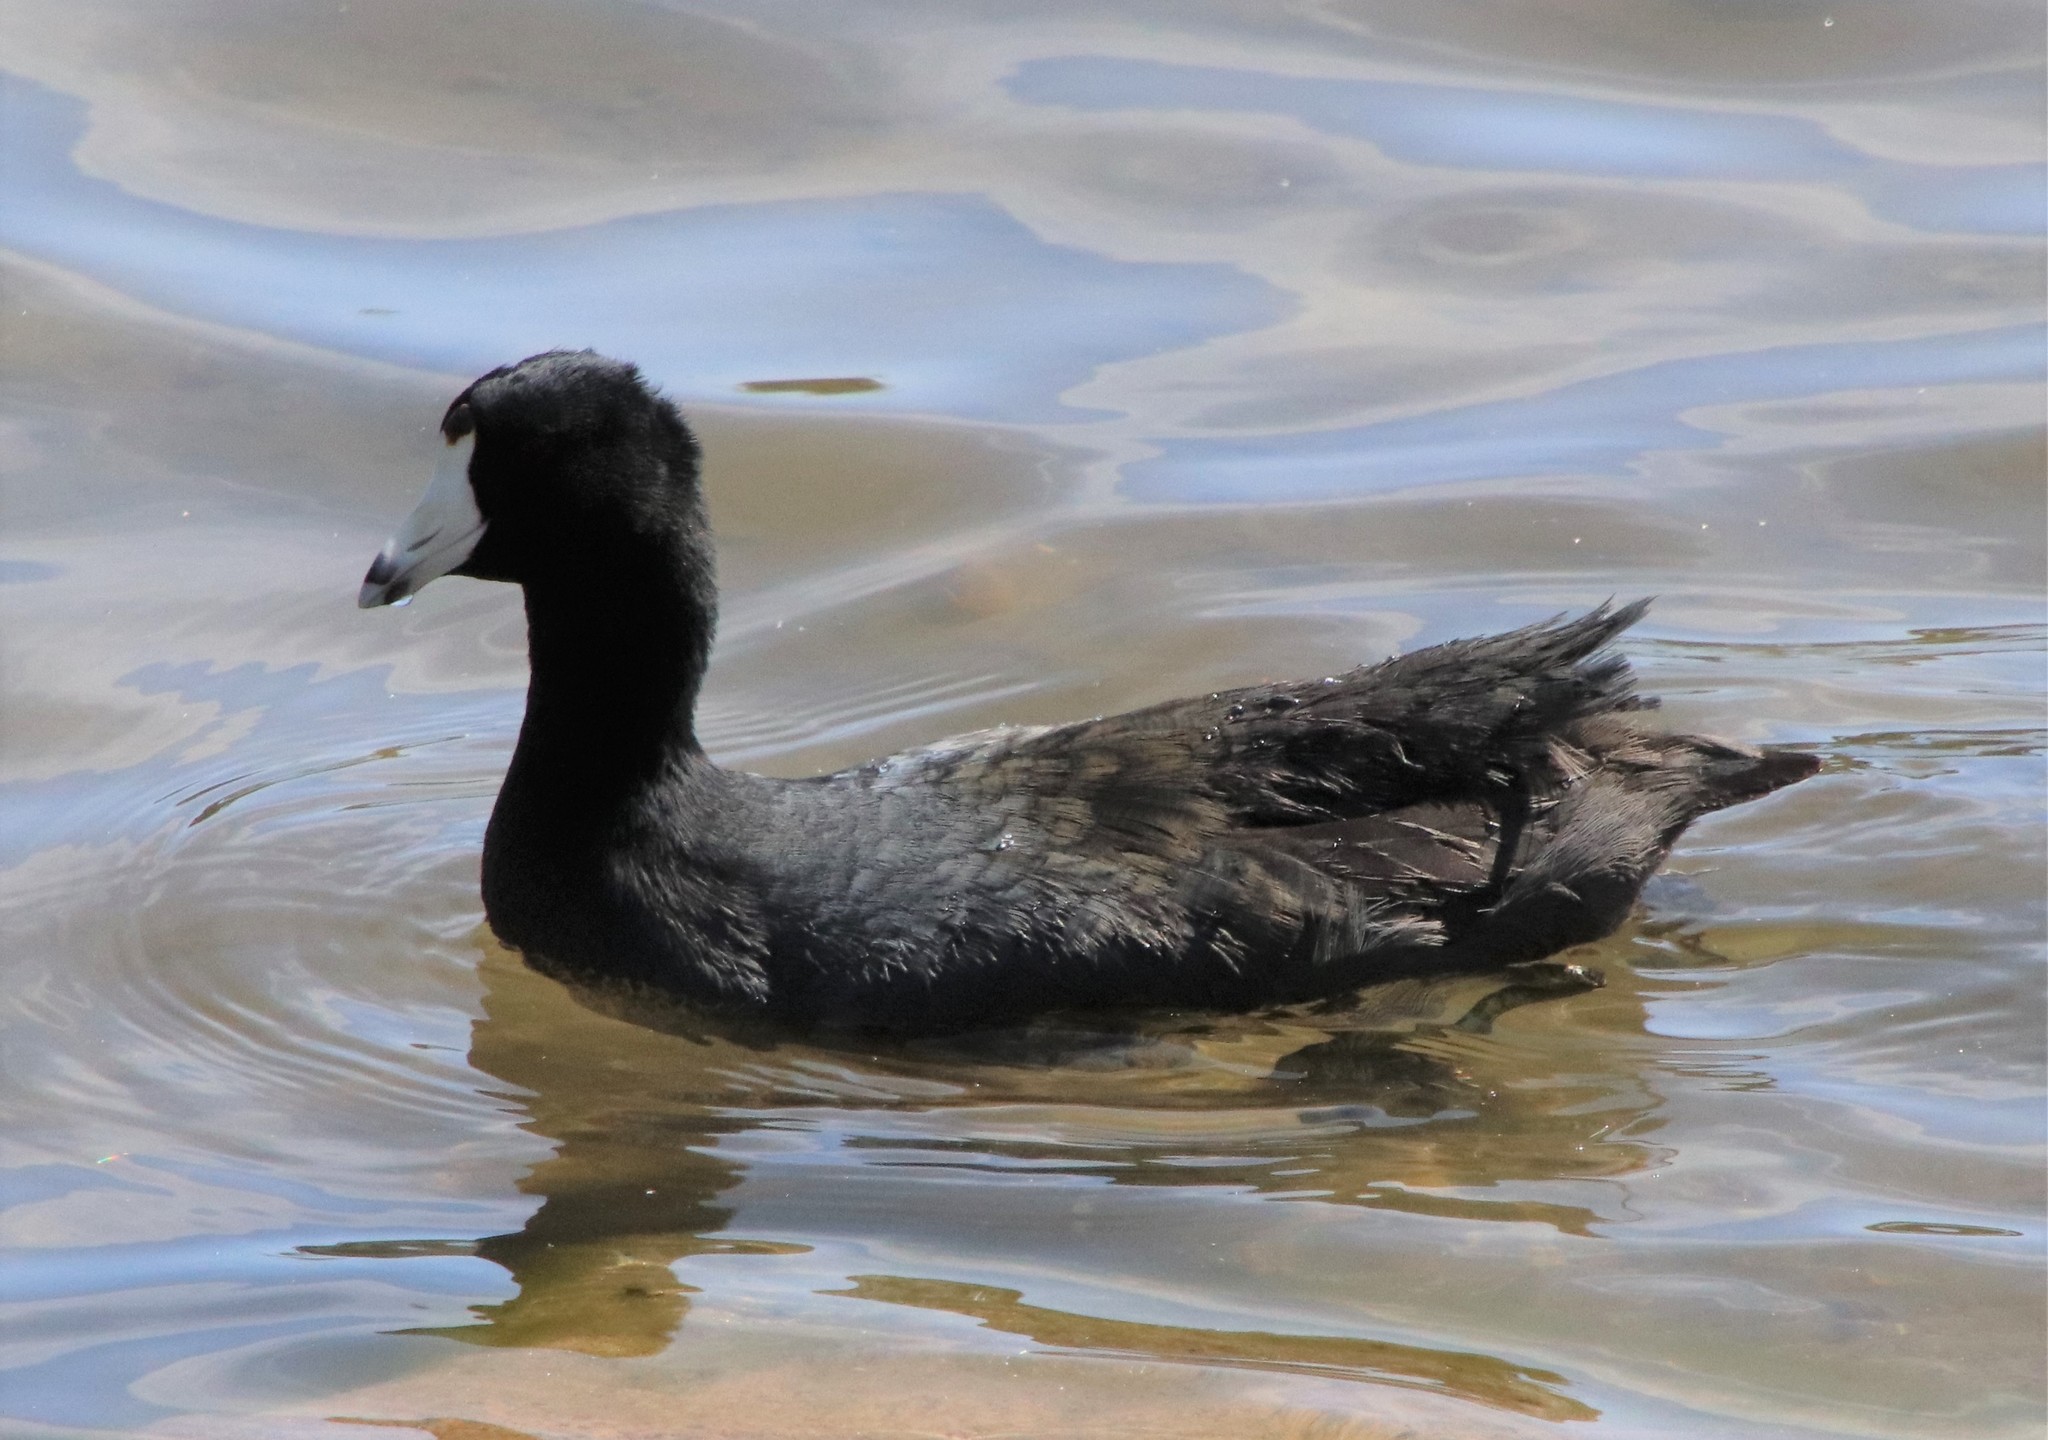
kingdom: Animalia
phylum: Chordata
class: Aves
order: Gruiformes
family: Rallidae
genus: Fulica
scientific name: Fulica americana
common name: American coot
